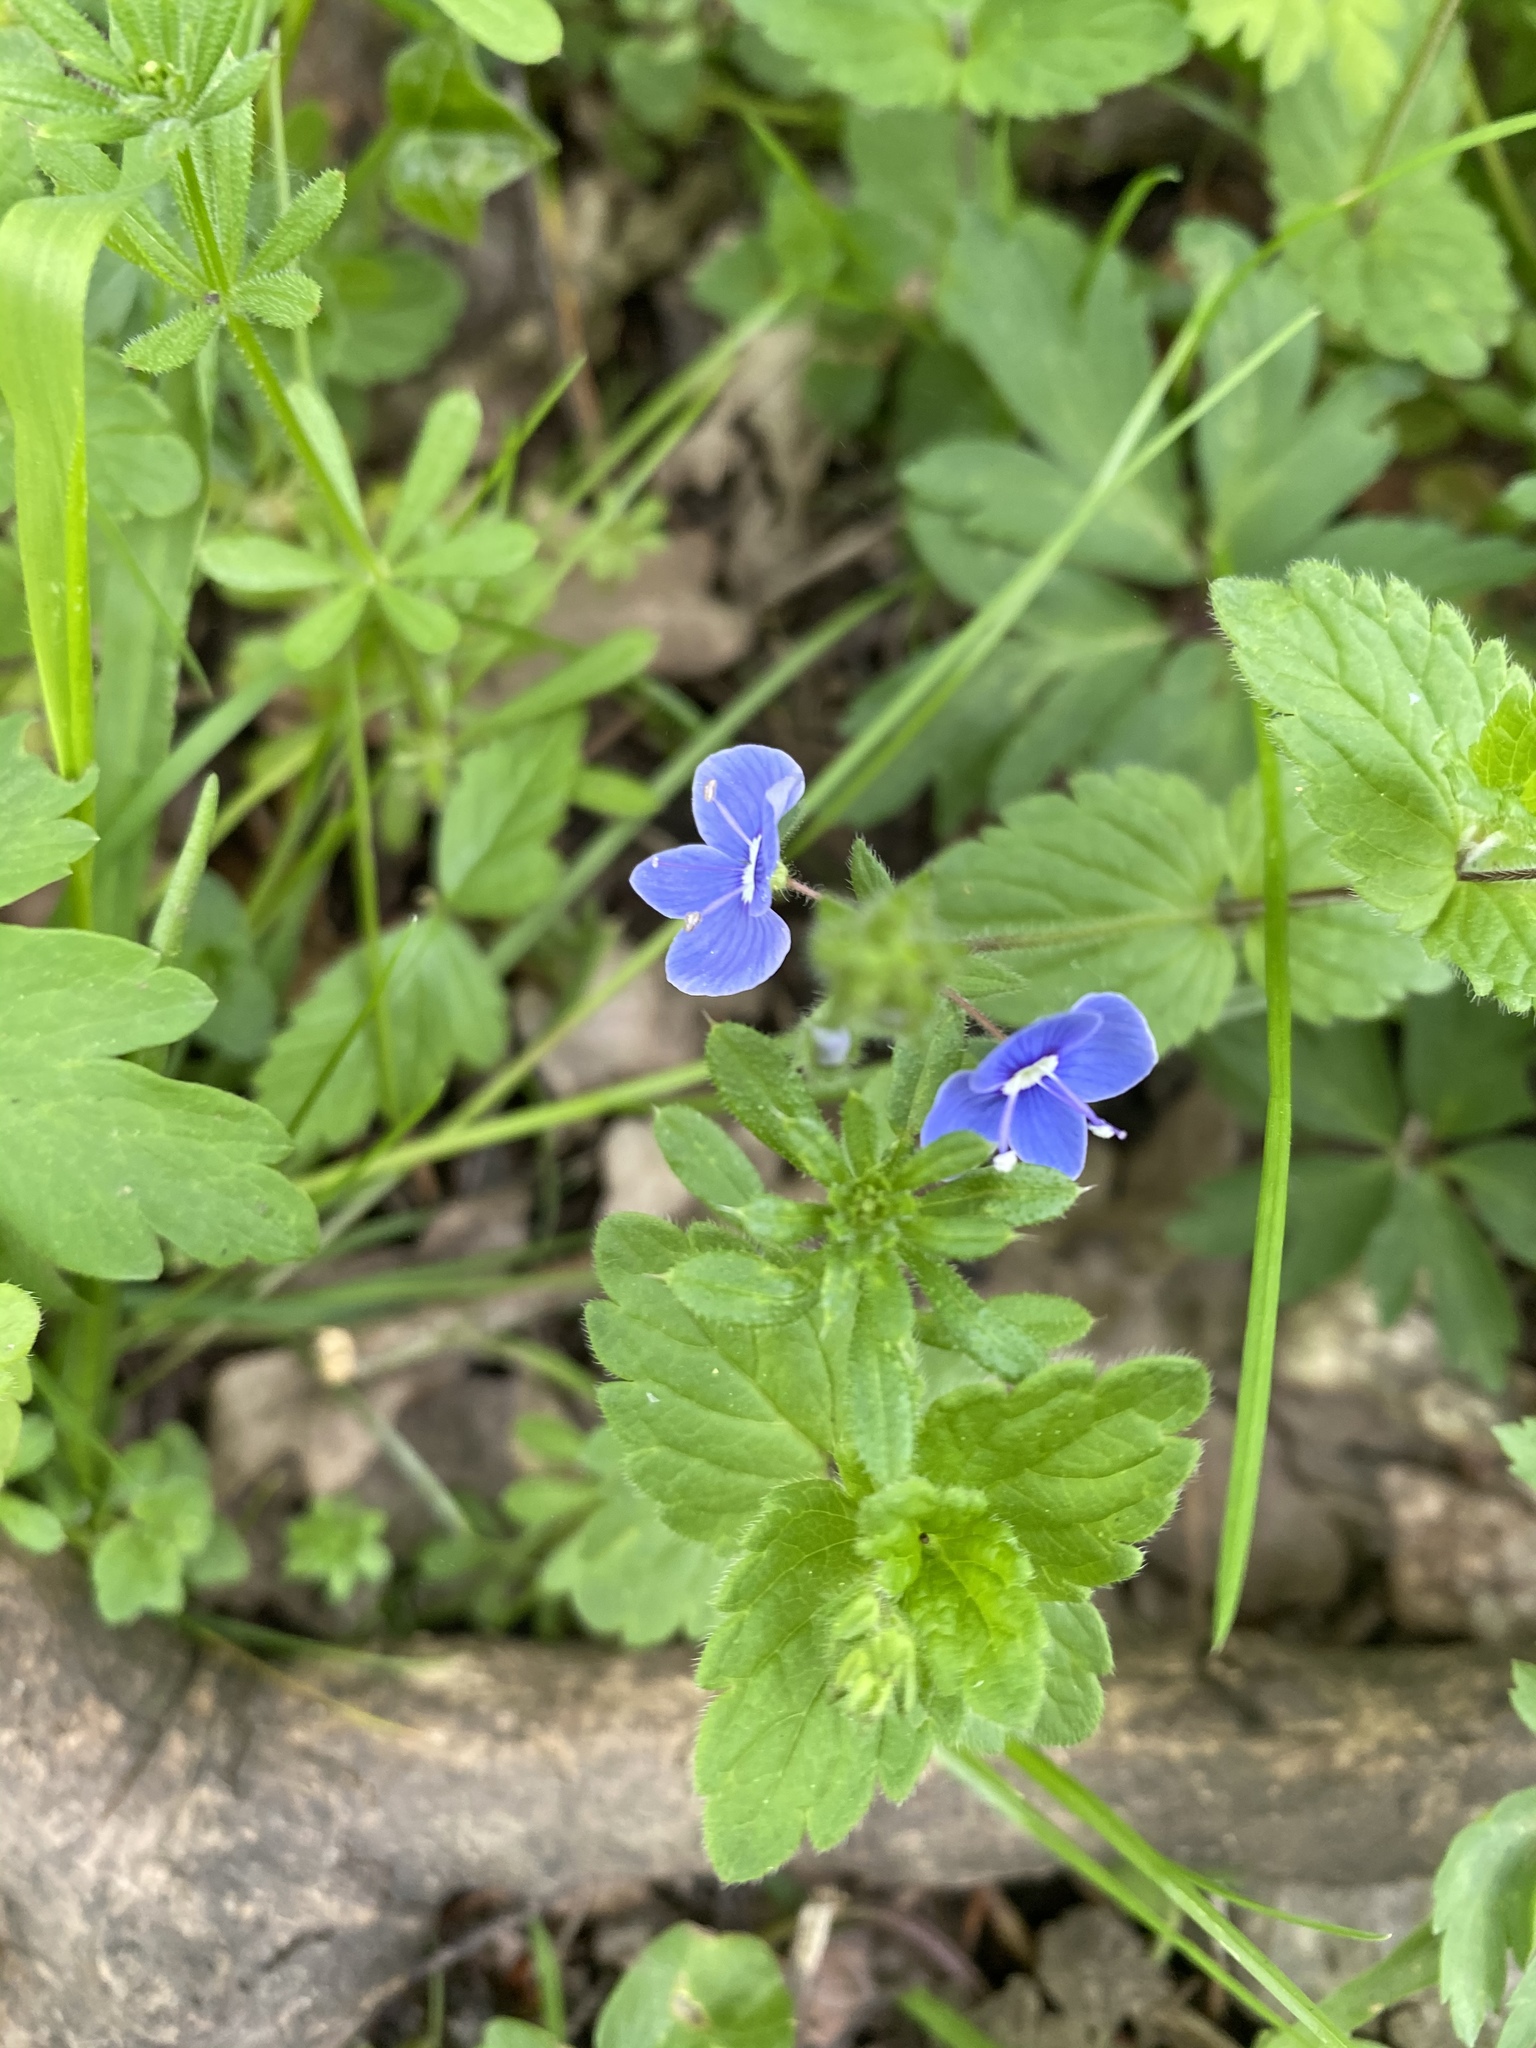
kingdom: Plantae
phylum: Tracheophyta
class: Magnoliopsida
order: Lamiales
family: Plantaginaceae
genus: Veronica
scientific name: Veronica chamaedrys
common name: Germander speedwell
